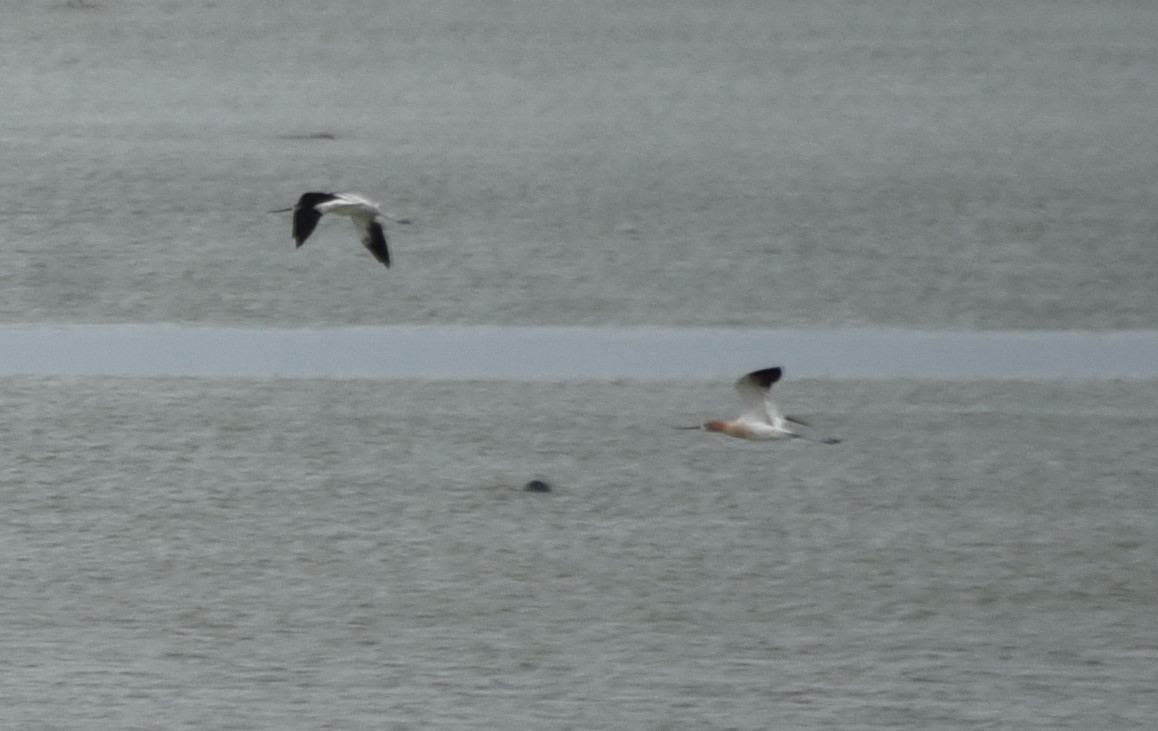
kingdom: Animalia
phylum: Chordata
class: Aves
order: Charadriiformes
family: Recurvirostridae
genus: Recurvirostra
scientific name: Recurvirostra americana
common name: American avocet
